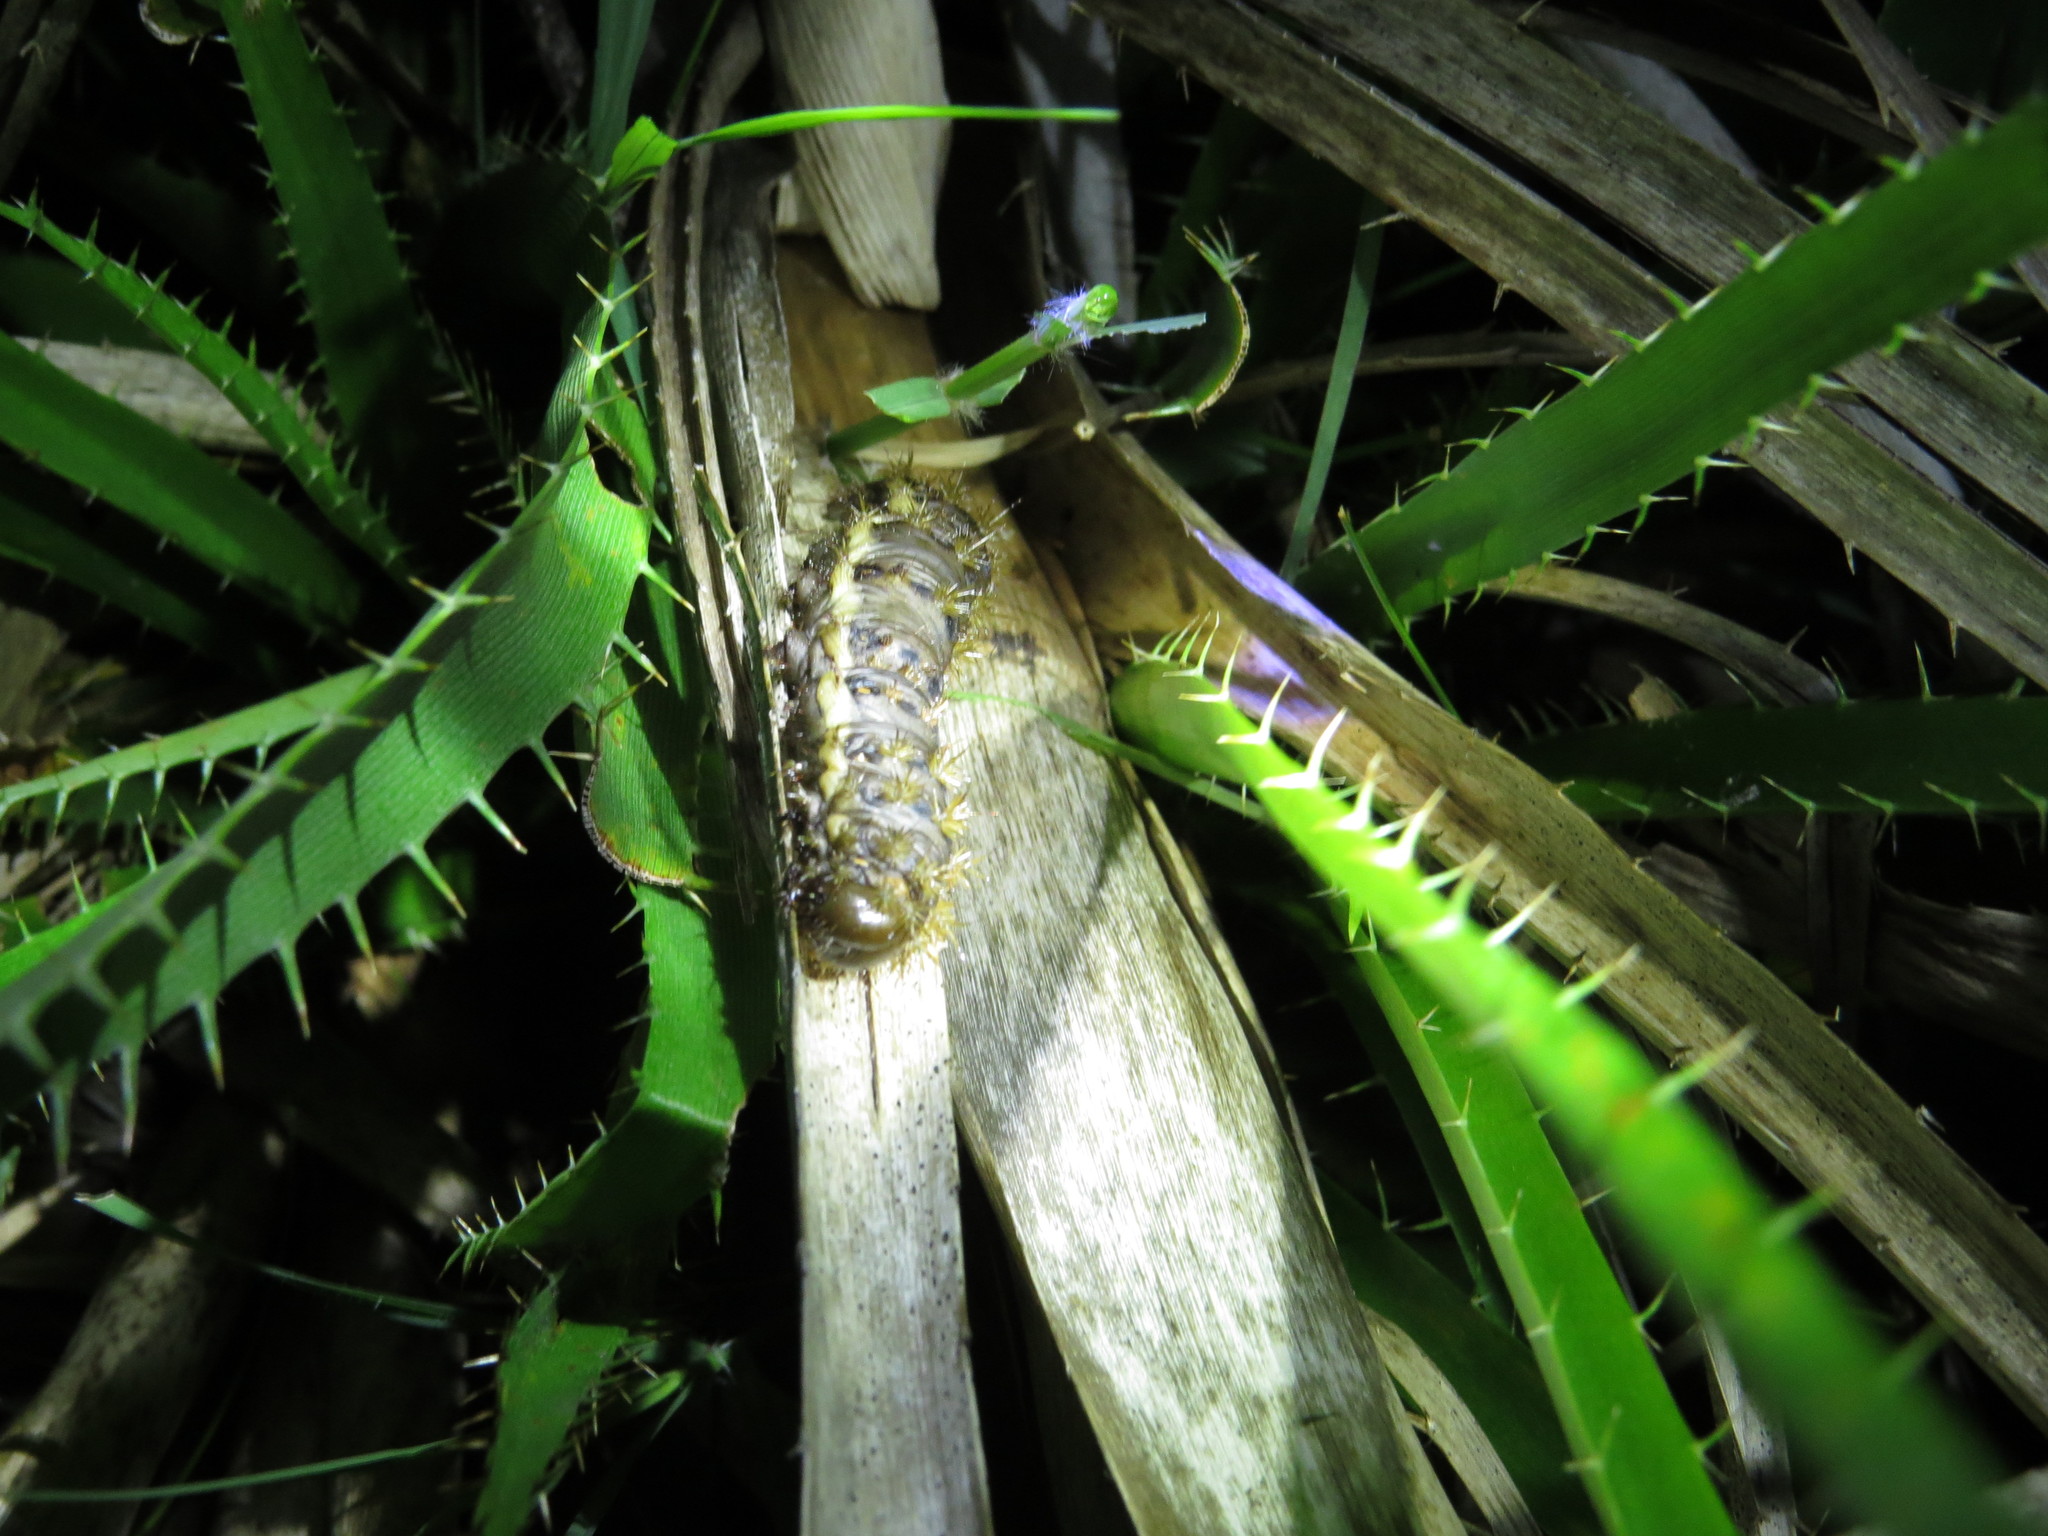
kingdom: Animalia
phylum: Arthropoda
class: Insecta
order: Lepidoptera
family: Saturniidae
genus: Heliconisa
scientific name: Heliconisa pagenstecheri
